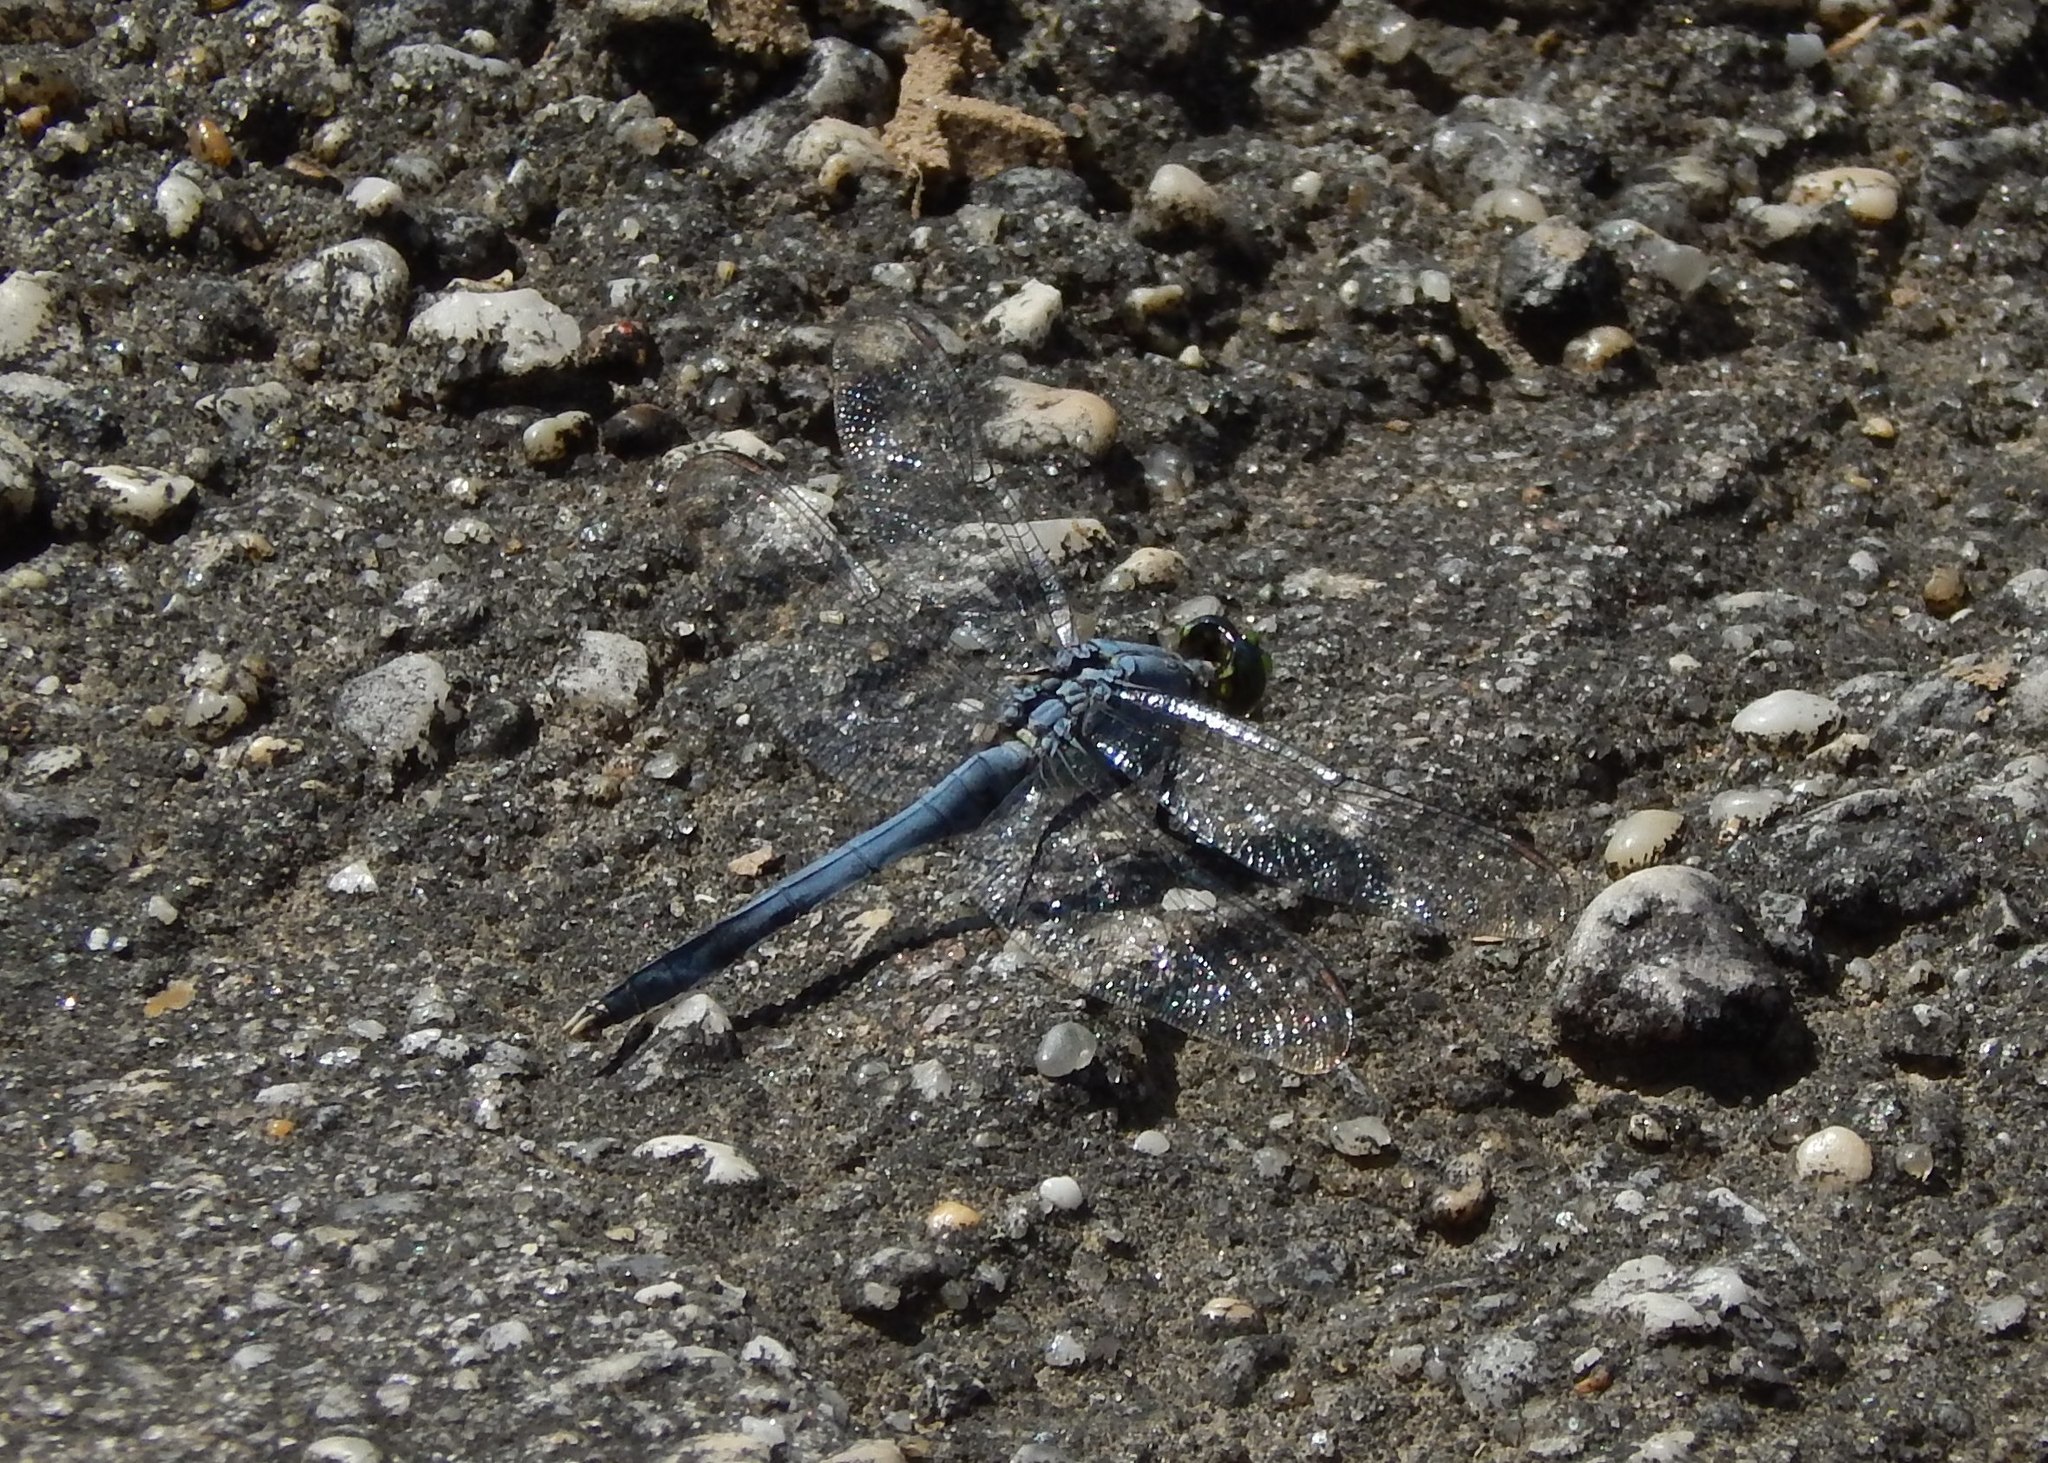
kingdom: Animalia
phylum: Arthropoda
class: Insecta
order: Odonata
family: Libellulidae
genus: Erythemis
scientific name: Erythemis simplicicollis
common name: Eastern pondhawk
